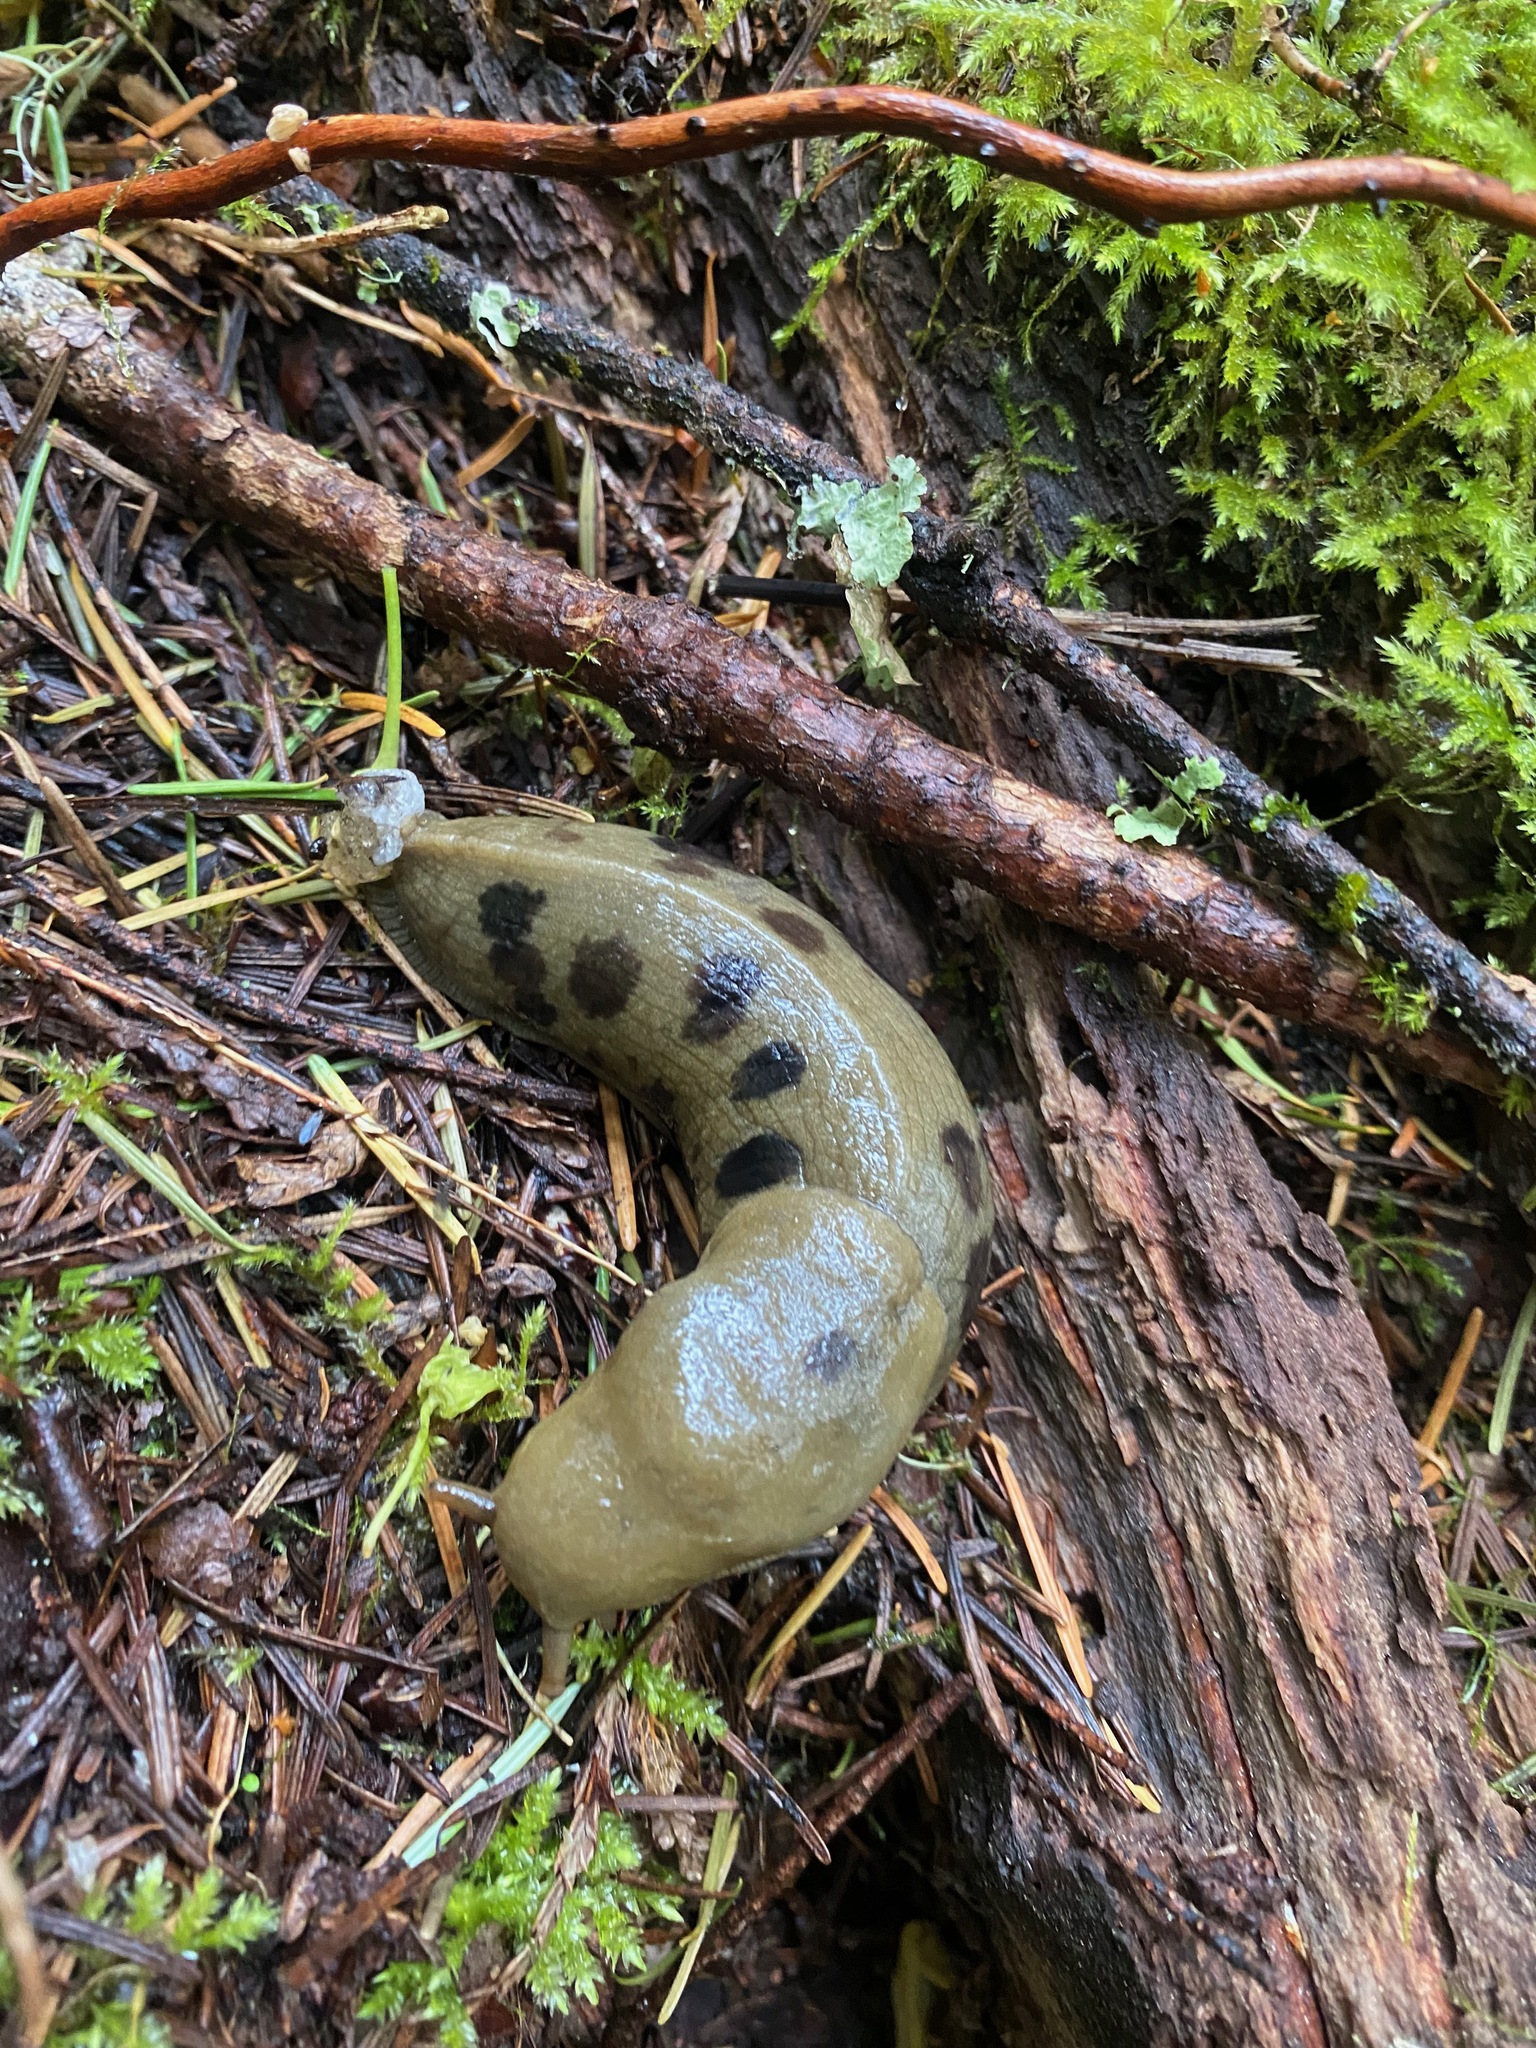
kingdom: Animalia
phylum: Mollusca
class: Gastropoda
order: Stylommatophora
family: Ariolimacidae
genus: Ariolimax
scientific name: Ariolimax columbianus
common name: Pacific banana slug
